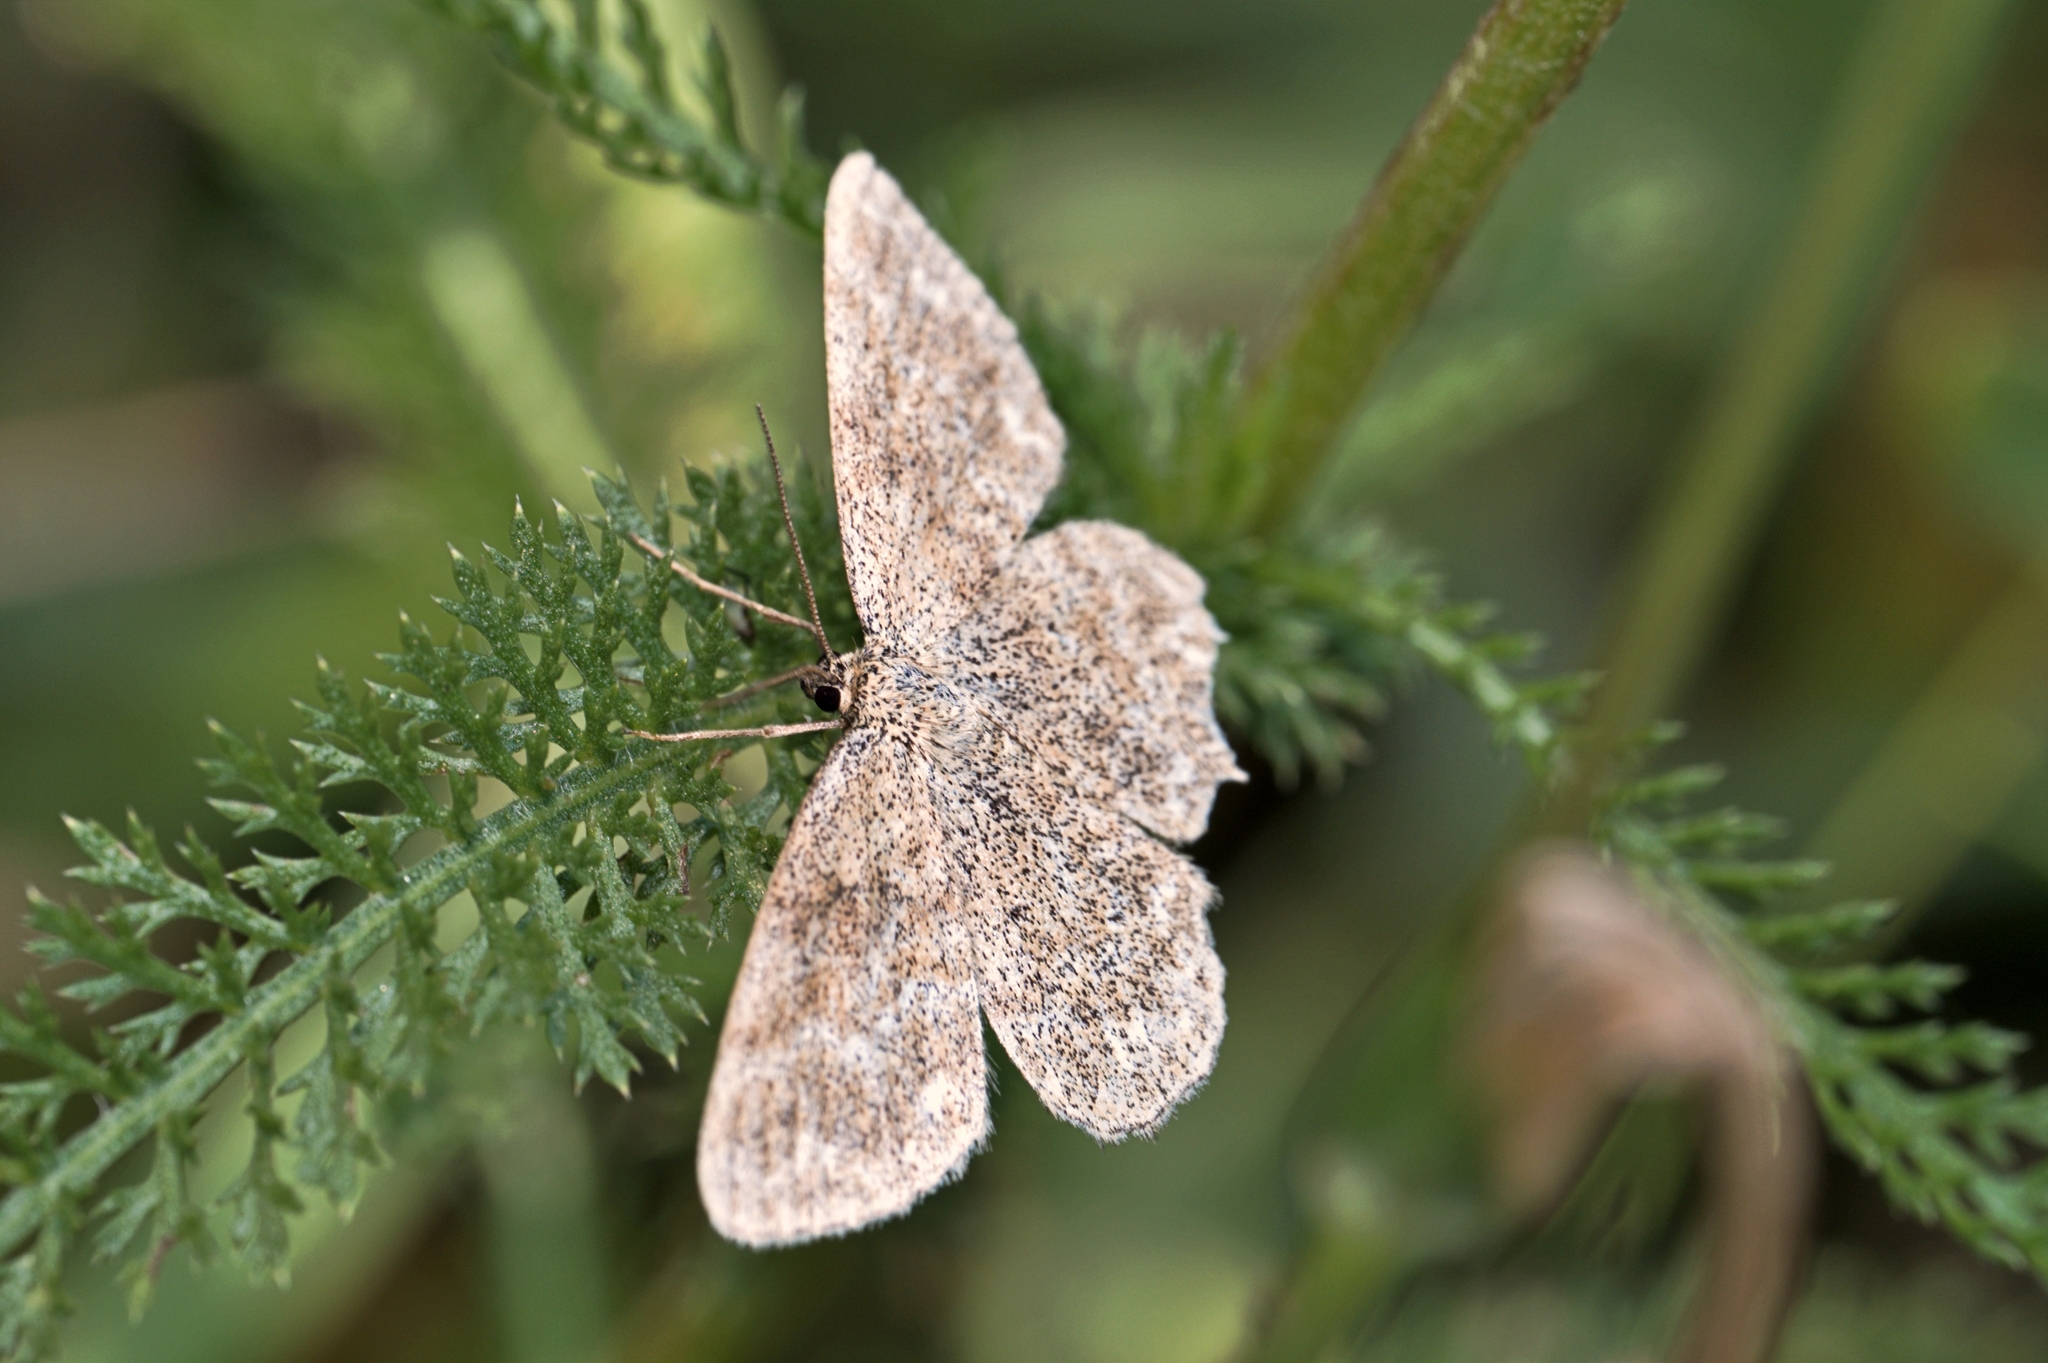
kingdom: Animalia
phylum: Arthropoda
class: Insecta
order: Lepidoptera
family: Geometridae
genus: Scopula
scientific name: Scopula immorata
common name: Lewes wave
